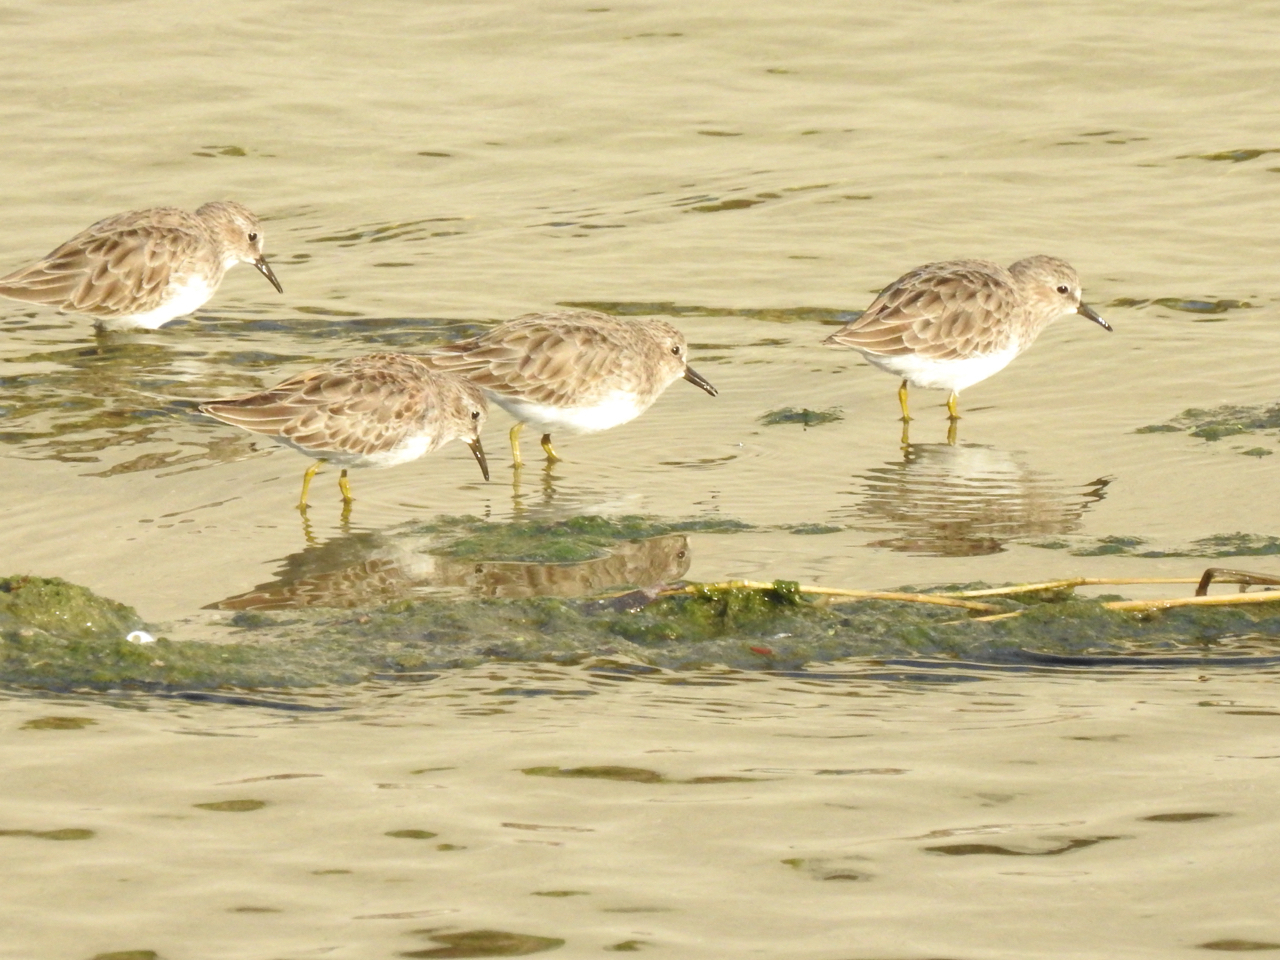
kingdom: Animalia
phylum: Chordata
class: Aves
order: Charadriiformes
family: Scolopacidae
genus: Calidris
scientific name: Calidris minutilla
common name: Least sandpiper
